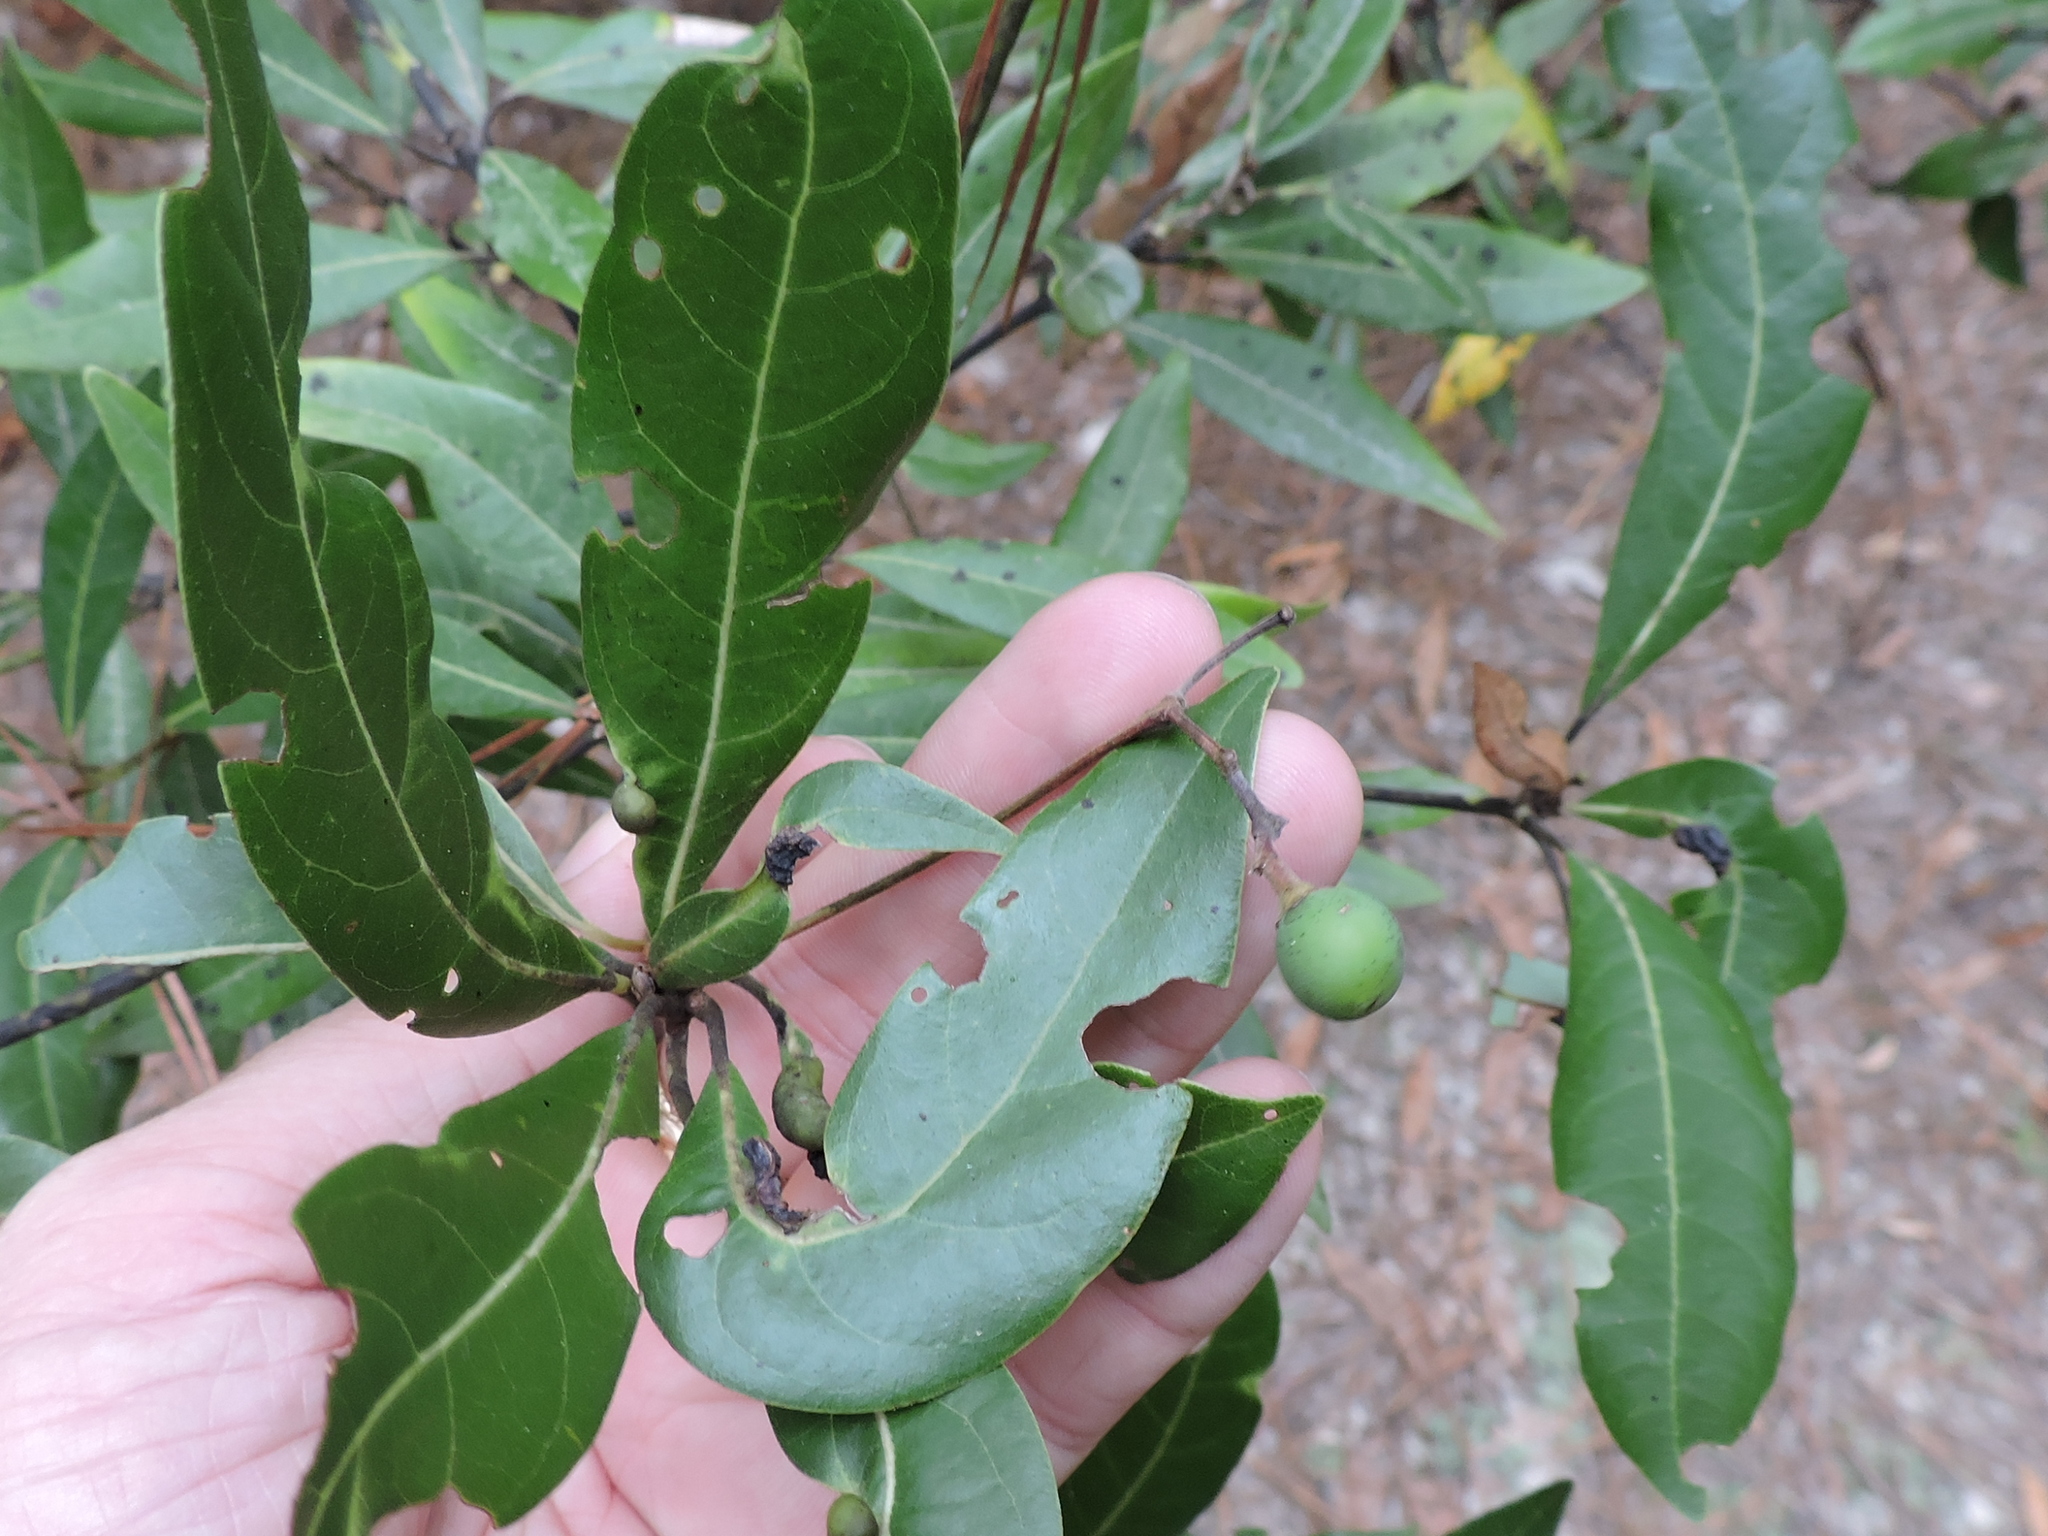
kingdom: Plantae
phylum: Tracheophyta
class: Magnoliopsida
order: Laurales
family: Lauraceae
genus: Persea
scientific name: Persea borbonia
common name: Redbay
